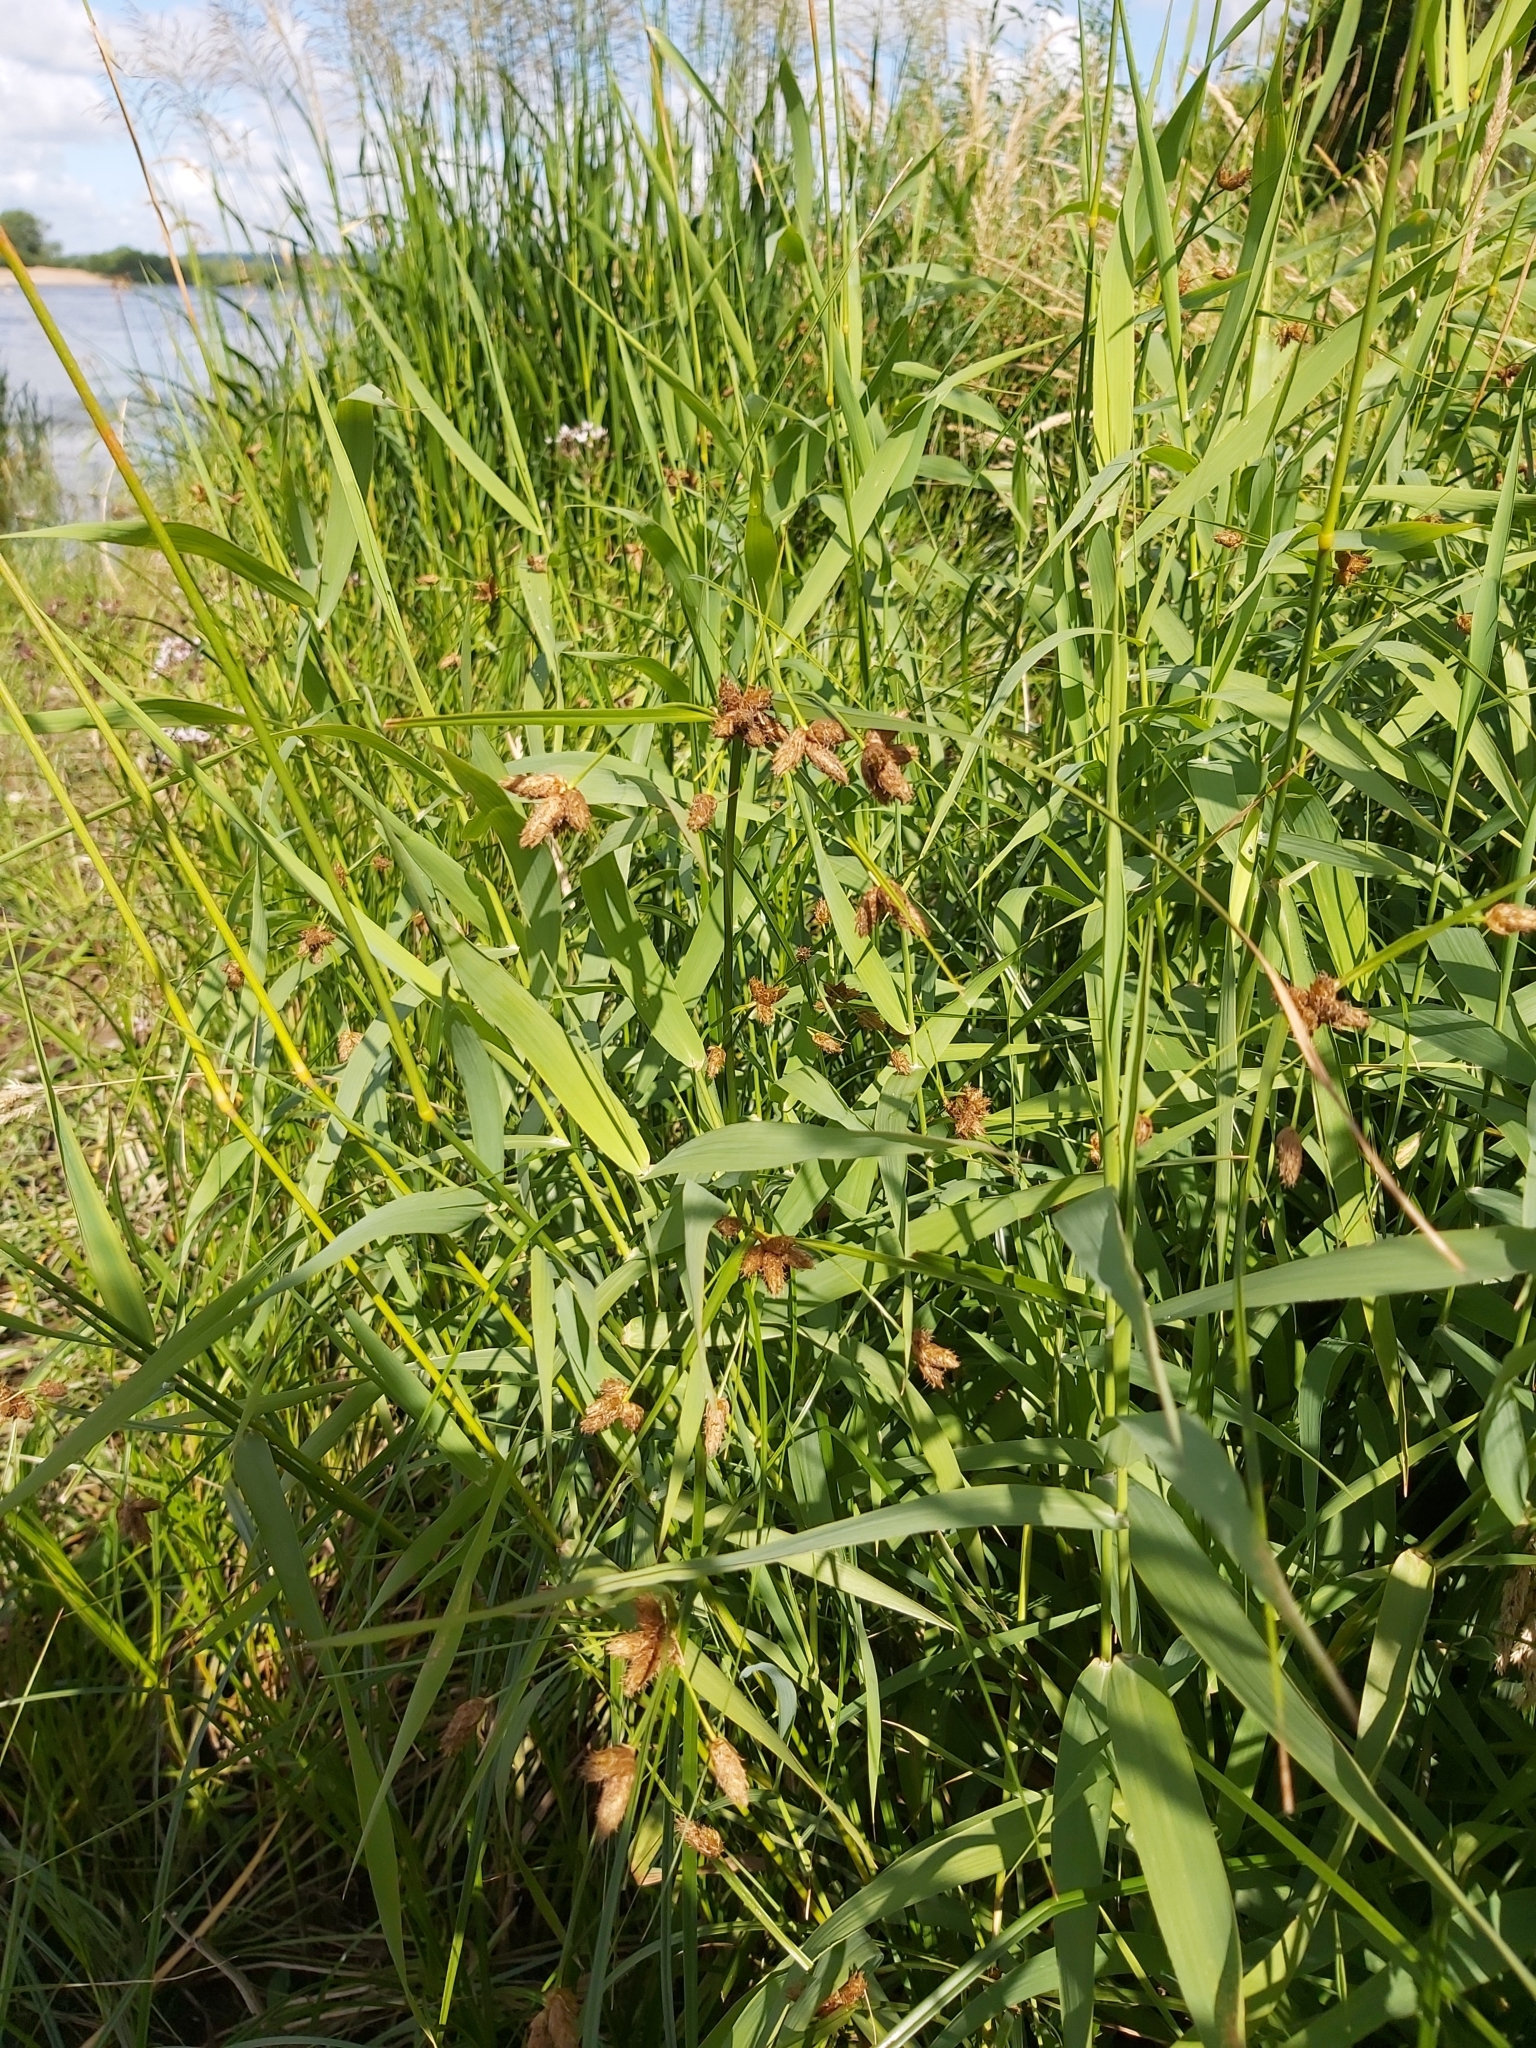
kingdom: Plantae
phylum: Tracheophyta
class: Liliopsida
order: Poales
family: Cyperaceae
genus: Bolboschoenus
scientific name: Bolboschoenus maritimus
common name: Sea club-rush
